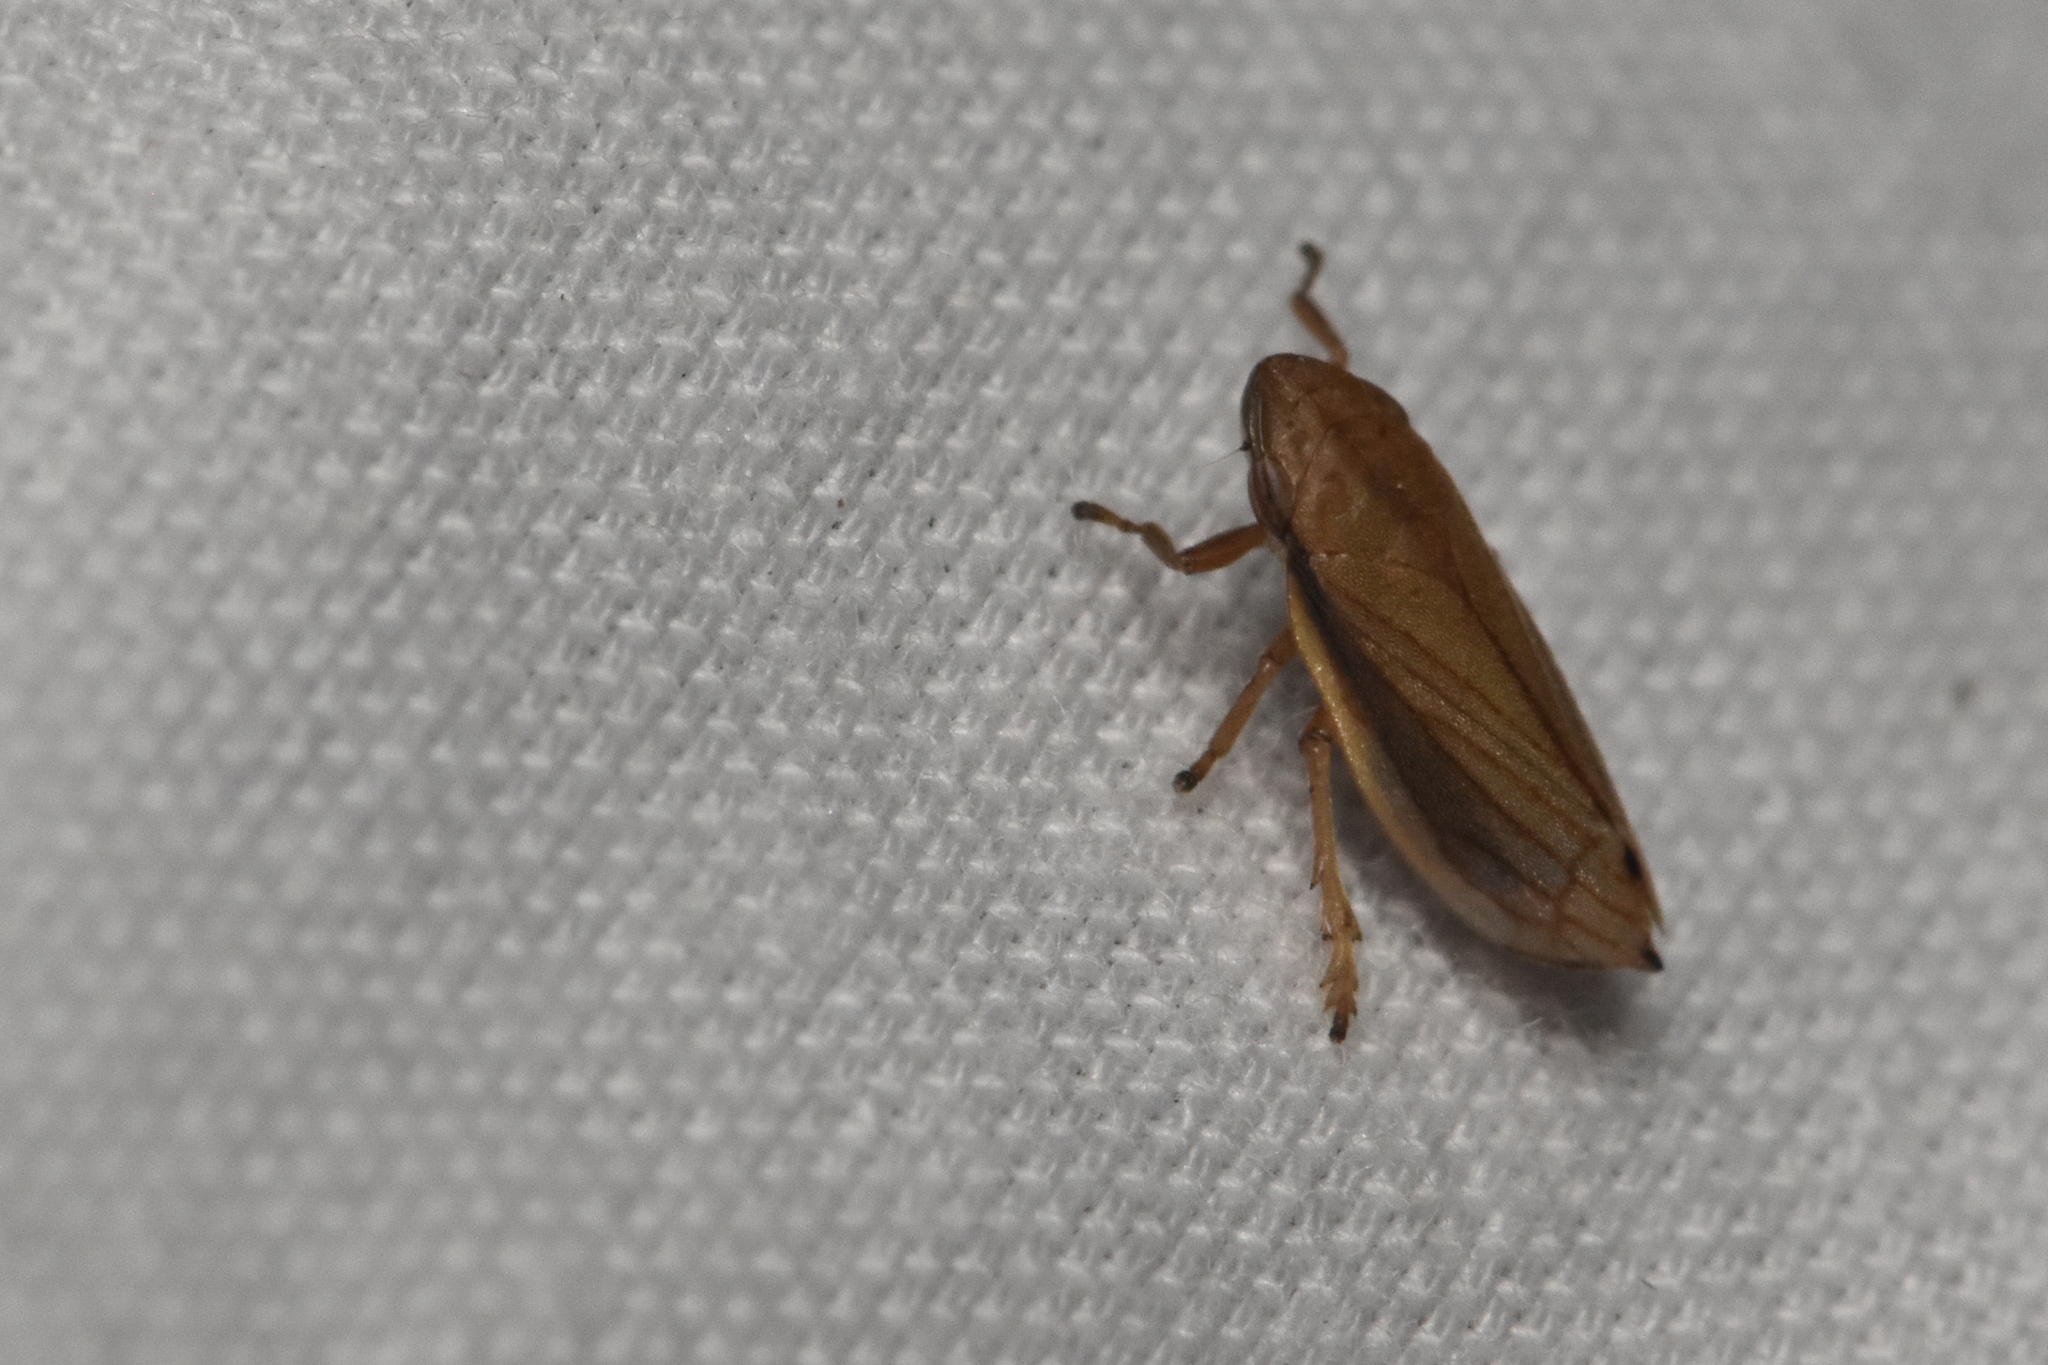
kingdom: Animalia
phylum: Arthropoda
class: Insecta
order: Hemiptera
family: Aphrophoridae
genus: Neophilaenus
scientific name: Neophilaenus lineatus
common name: Spittlebug
